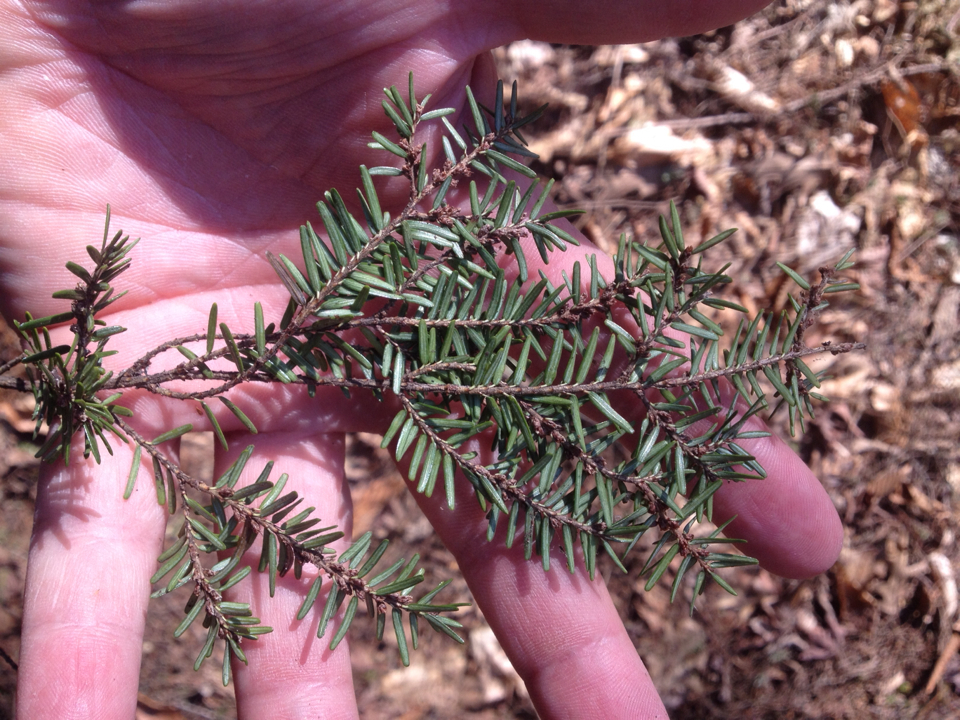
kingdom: Plantae
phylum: Tracheophyta
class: Pinopsida
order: Pinales
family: Pinaceae
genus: Tsuga
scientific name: Tsuga canadensis
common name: Eastern hemlock
